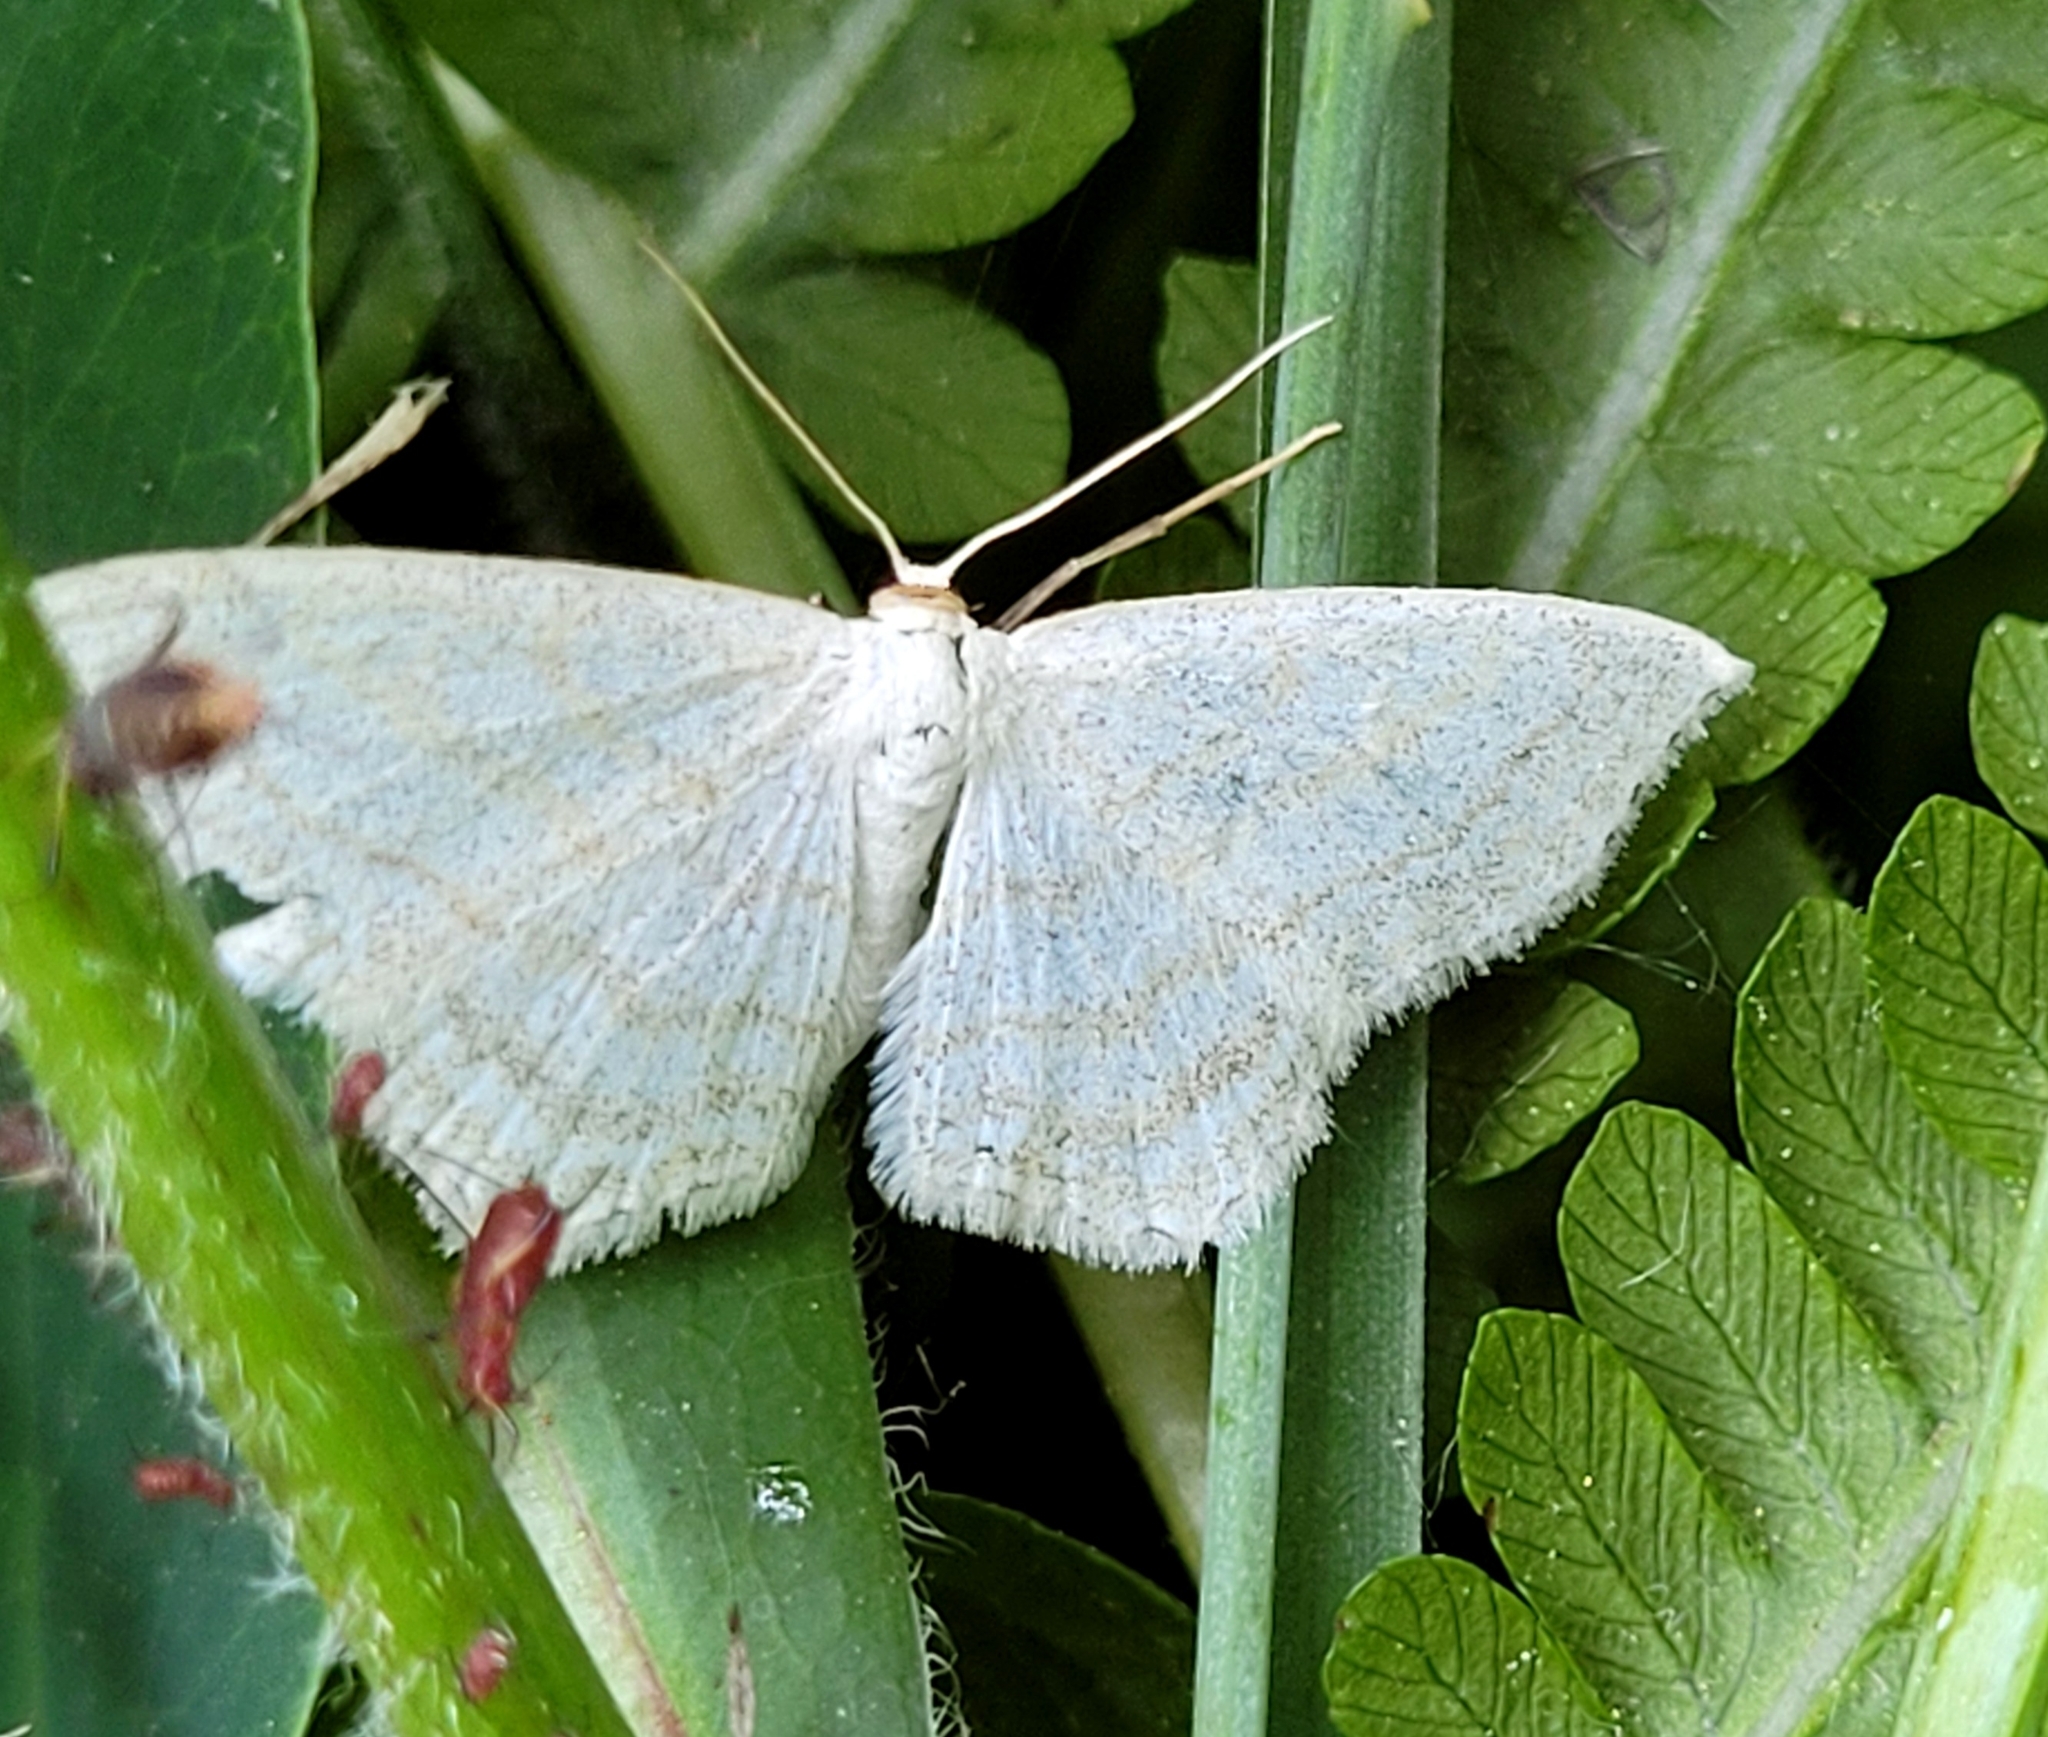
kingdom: Animalia
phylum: Arthropoda
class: Insecta
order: Lepidoptera
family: Geometridae
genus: Scopula
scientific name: Scopula junctaria
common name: Simple wave
